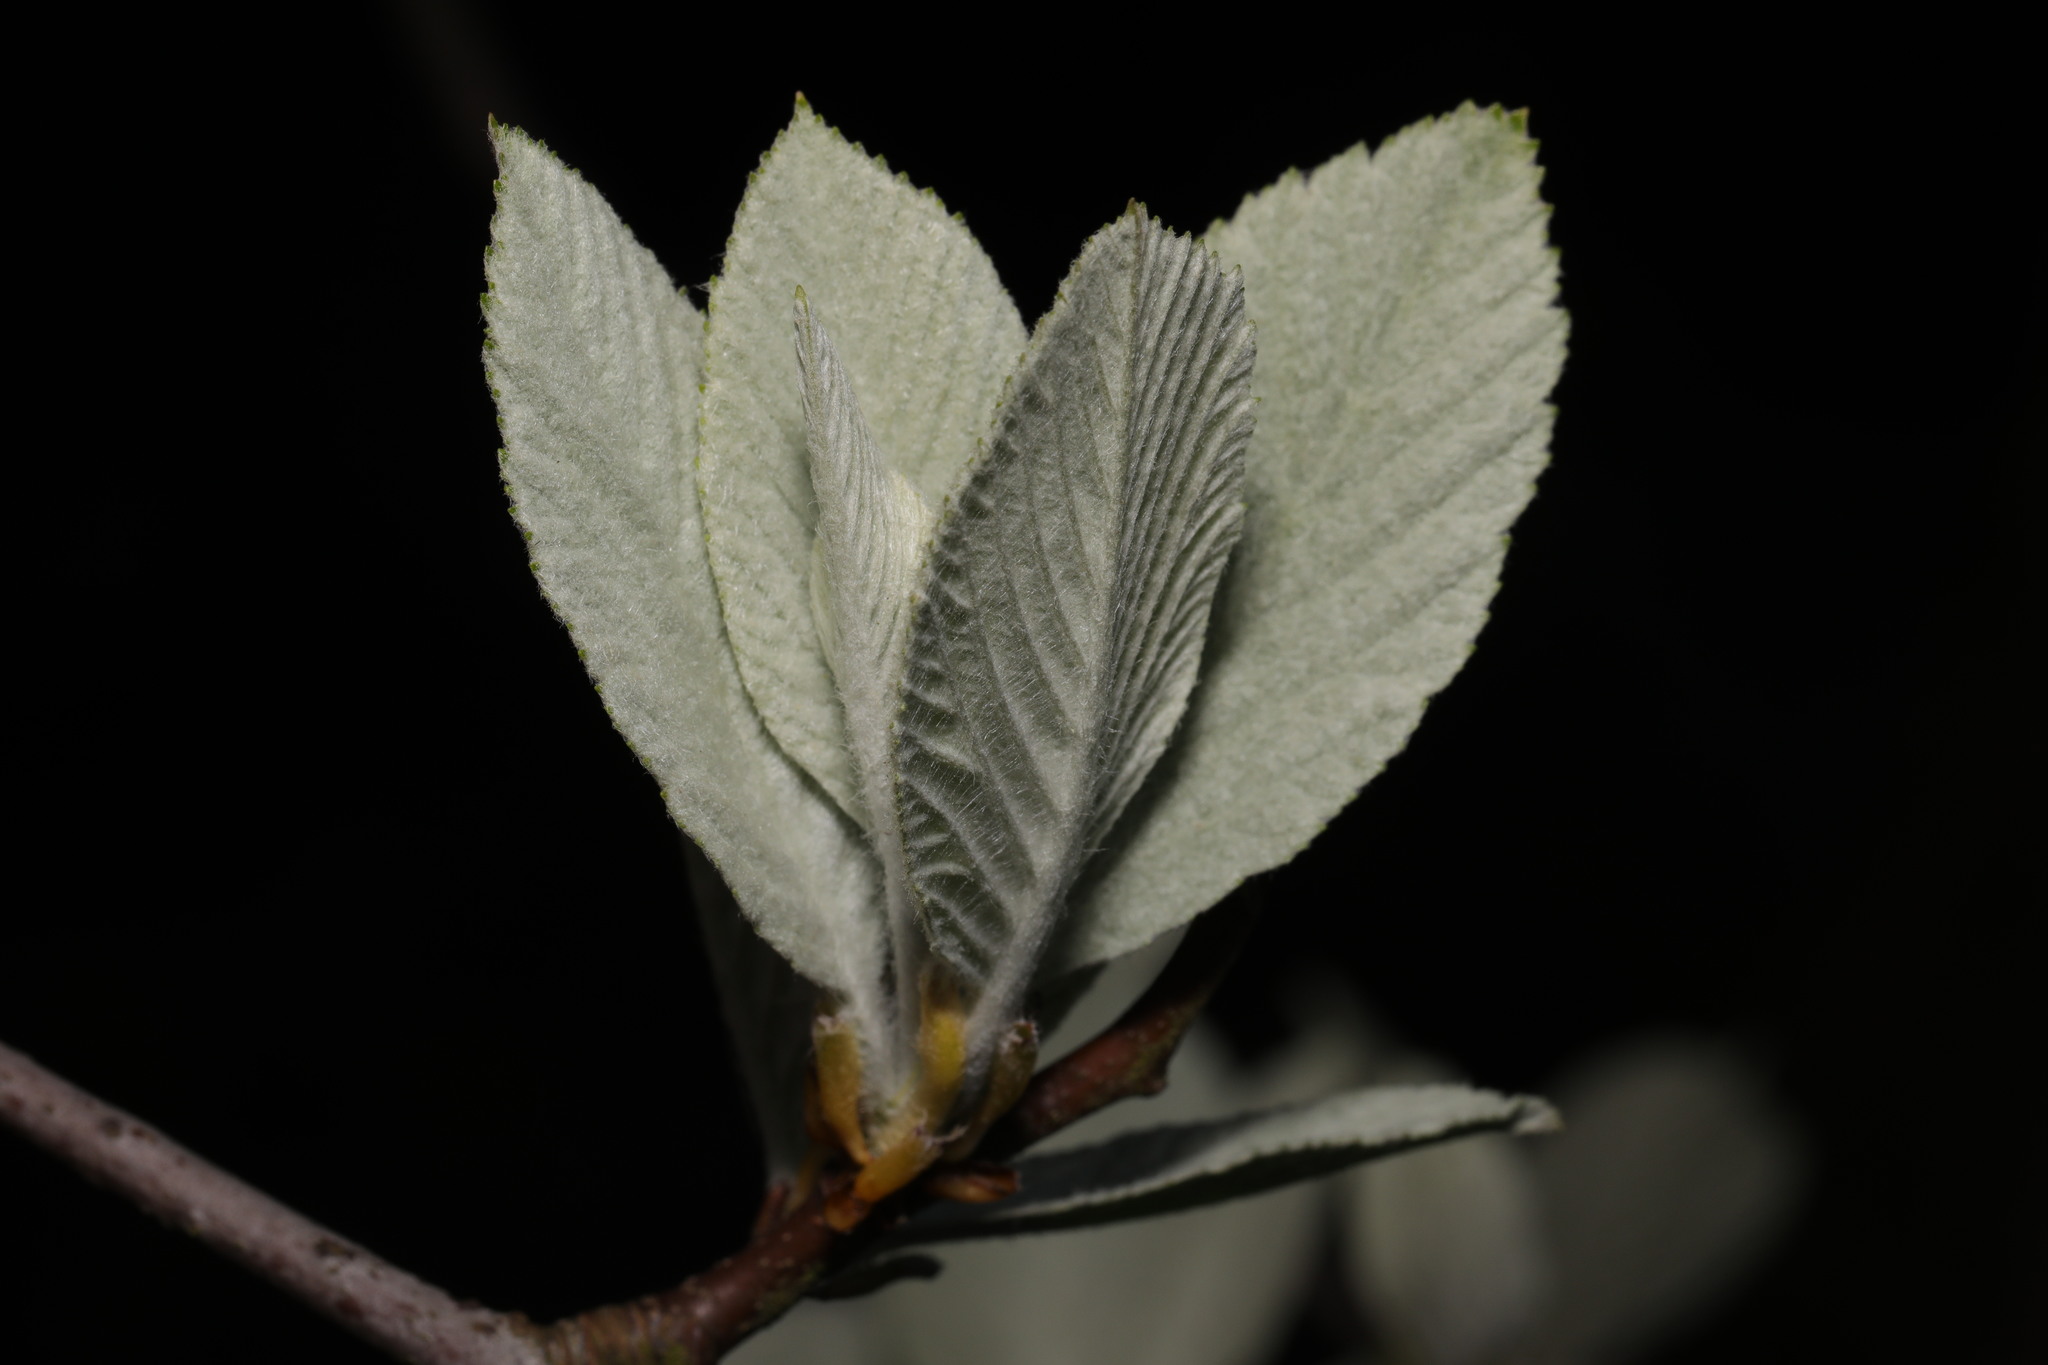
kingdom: Plantae
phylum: Tracheophyta
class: Magnoliopsida
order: Rosales
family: Rosaceae
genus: Aria
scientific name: Aria edulis
